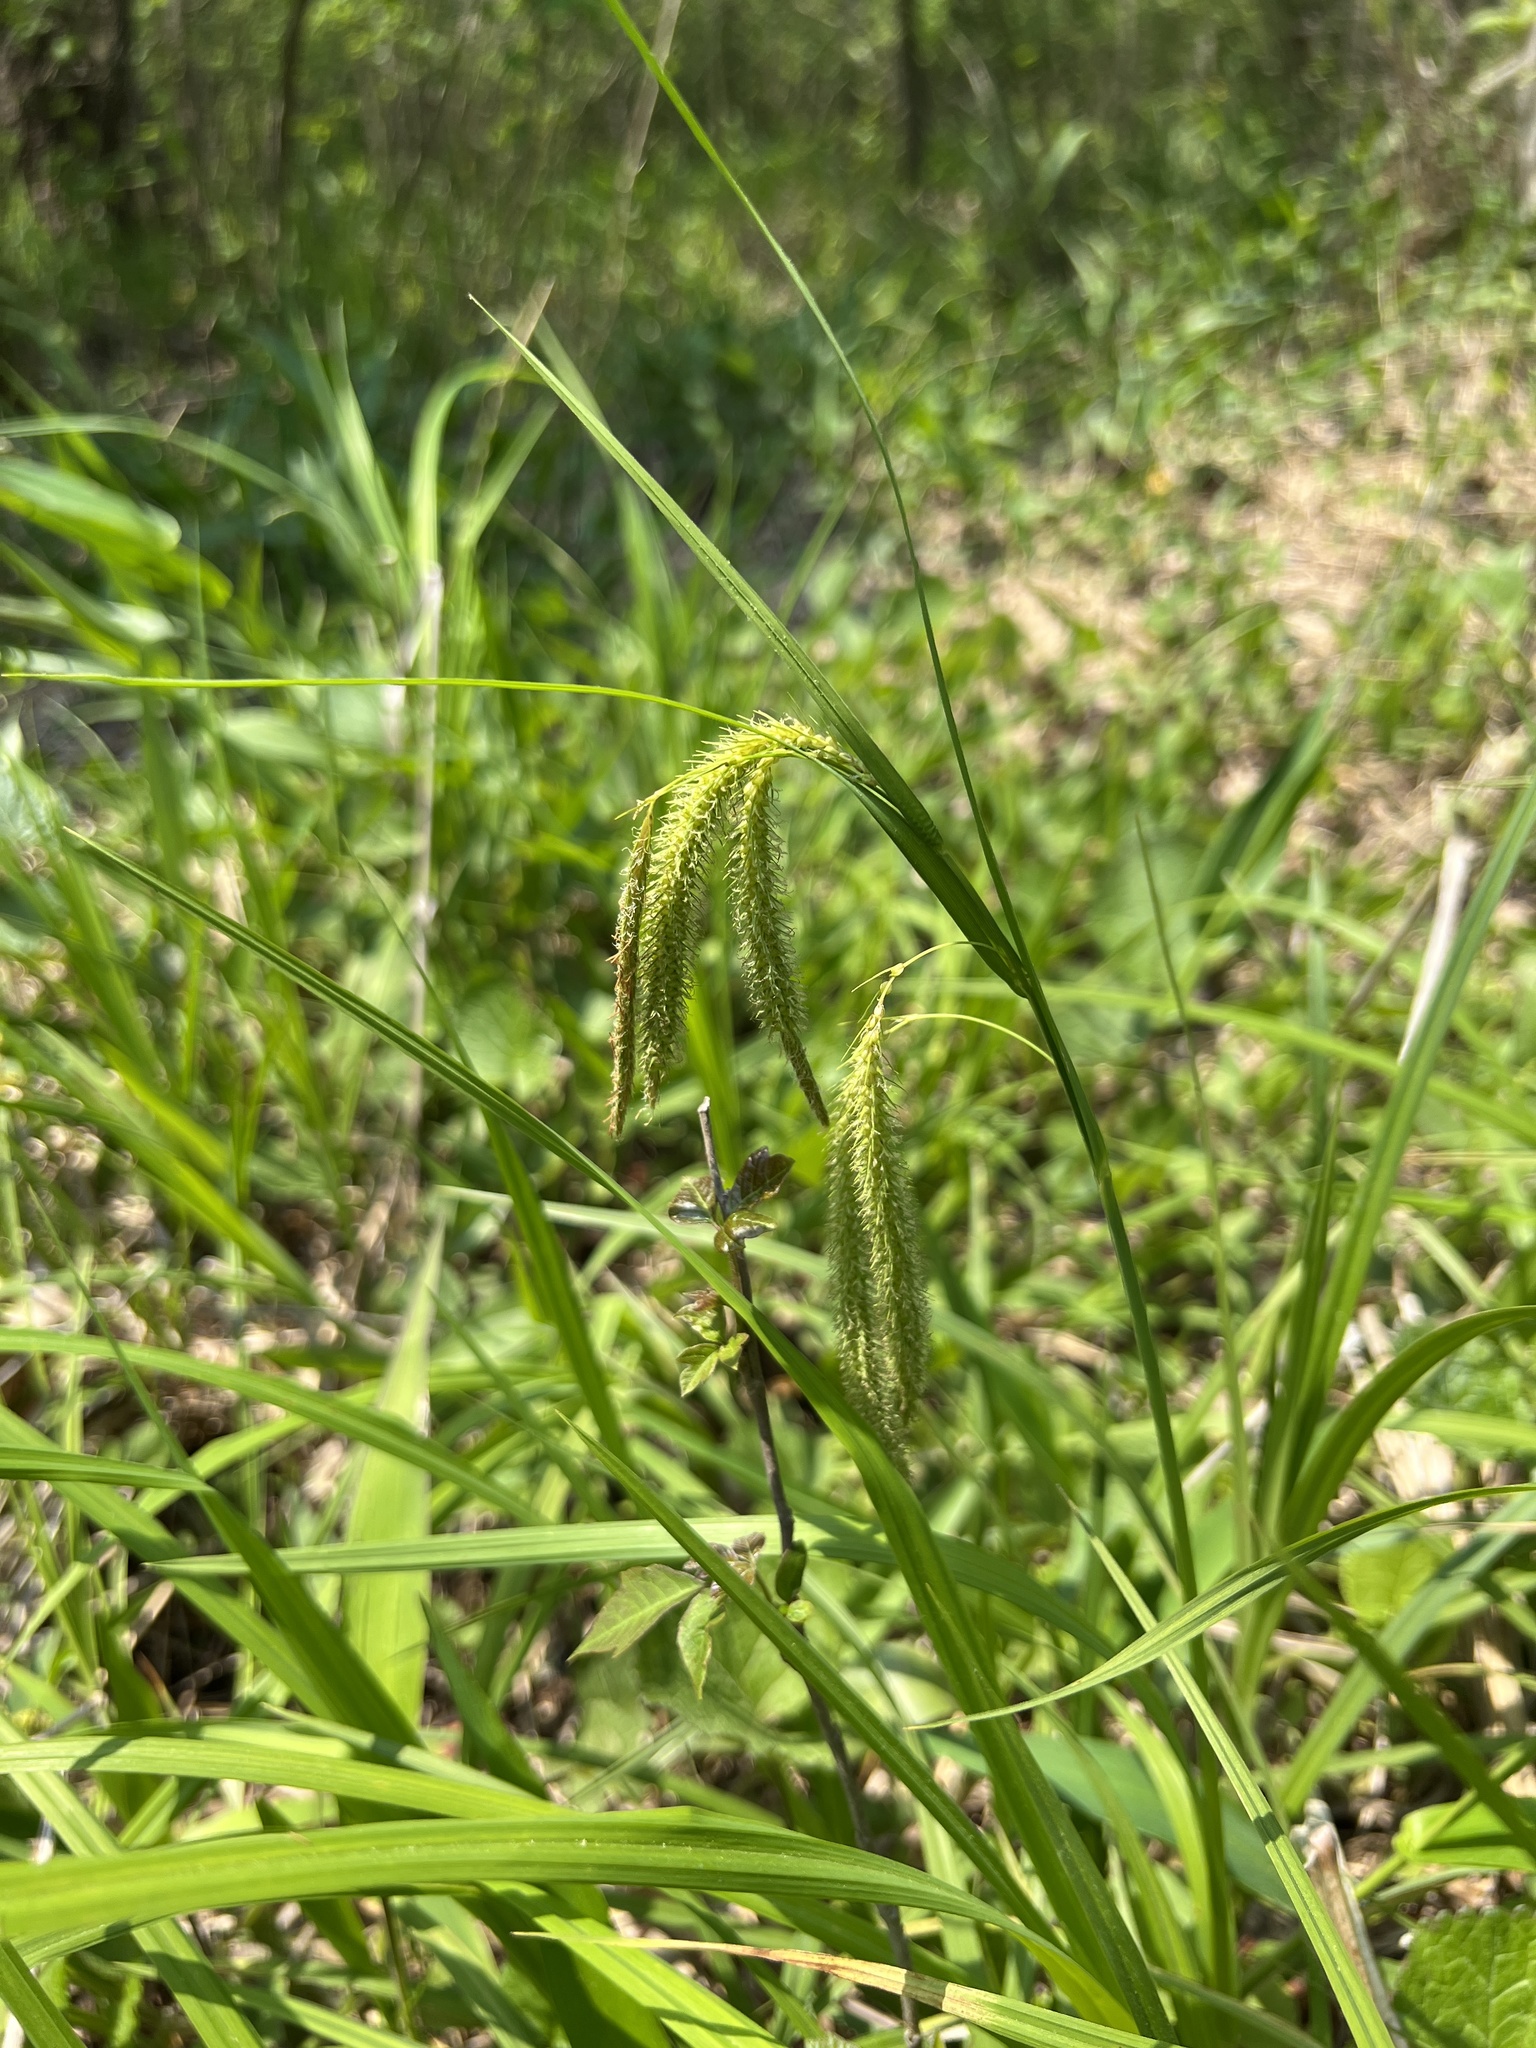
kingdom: Plantae
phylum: Tracheophyta
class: Liliopsida
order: Poales
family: Cyperaceae
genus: Carex
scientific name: Carex crinita
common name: Fringed sedge
